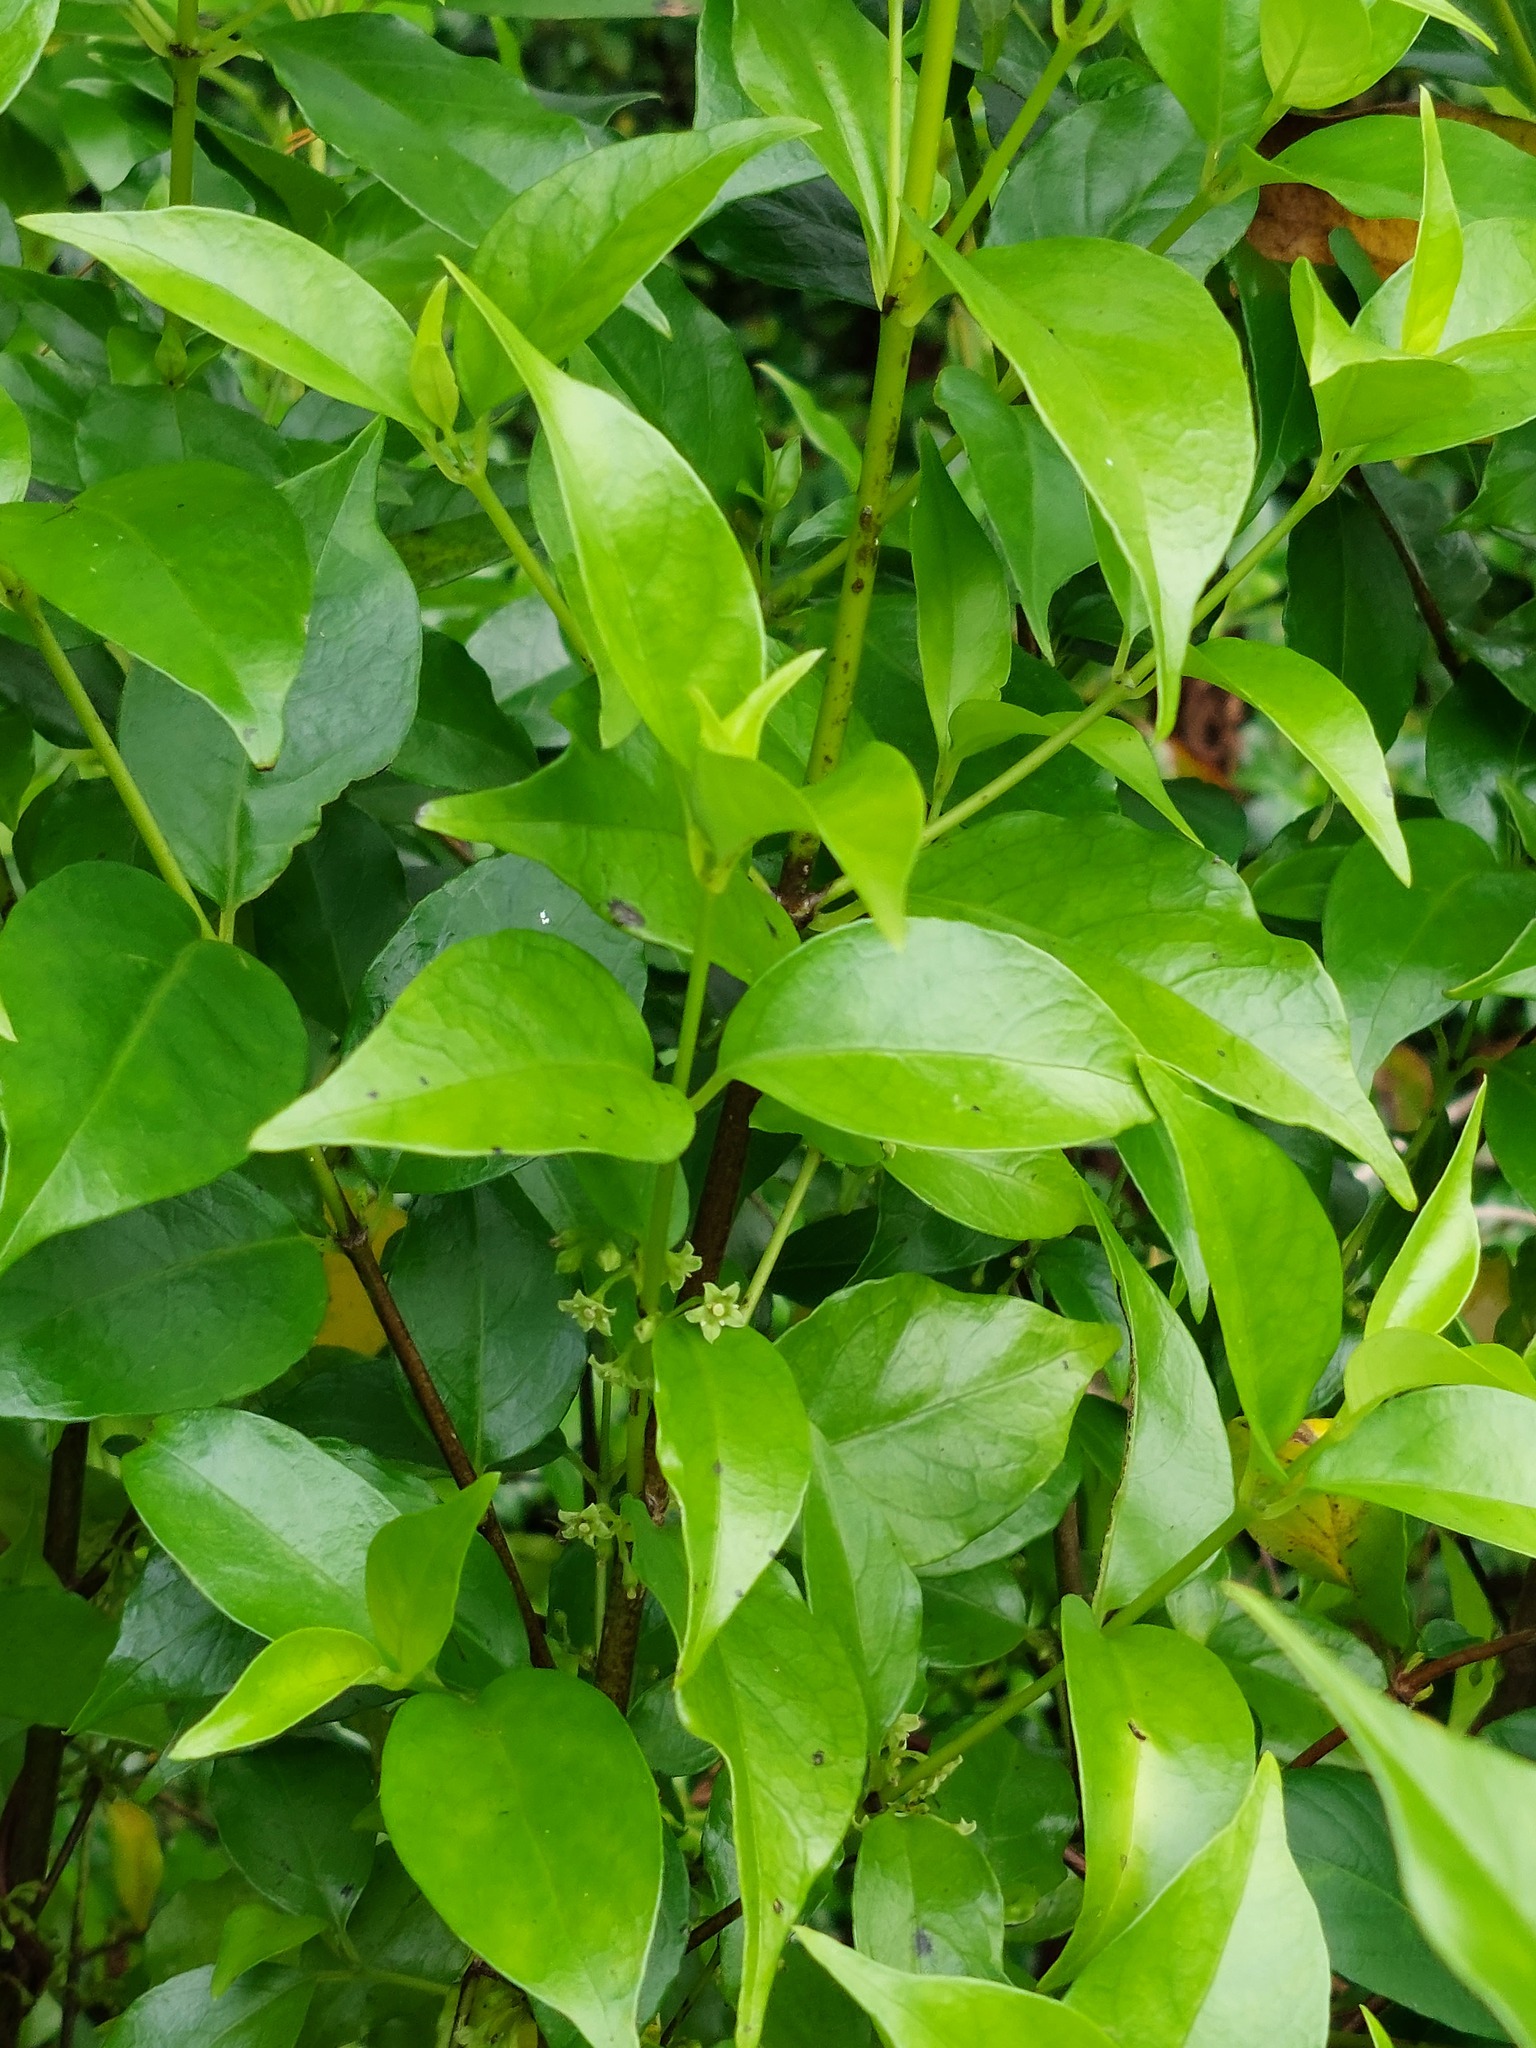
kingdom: Plantae
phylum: Tracheophyta
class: Magnoliopsida
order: Gentianales
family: Loganiaceae
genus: Geniostoma
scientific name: Geniostoma ligustrifolium
